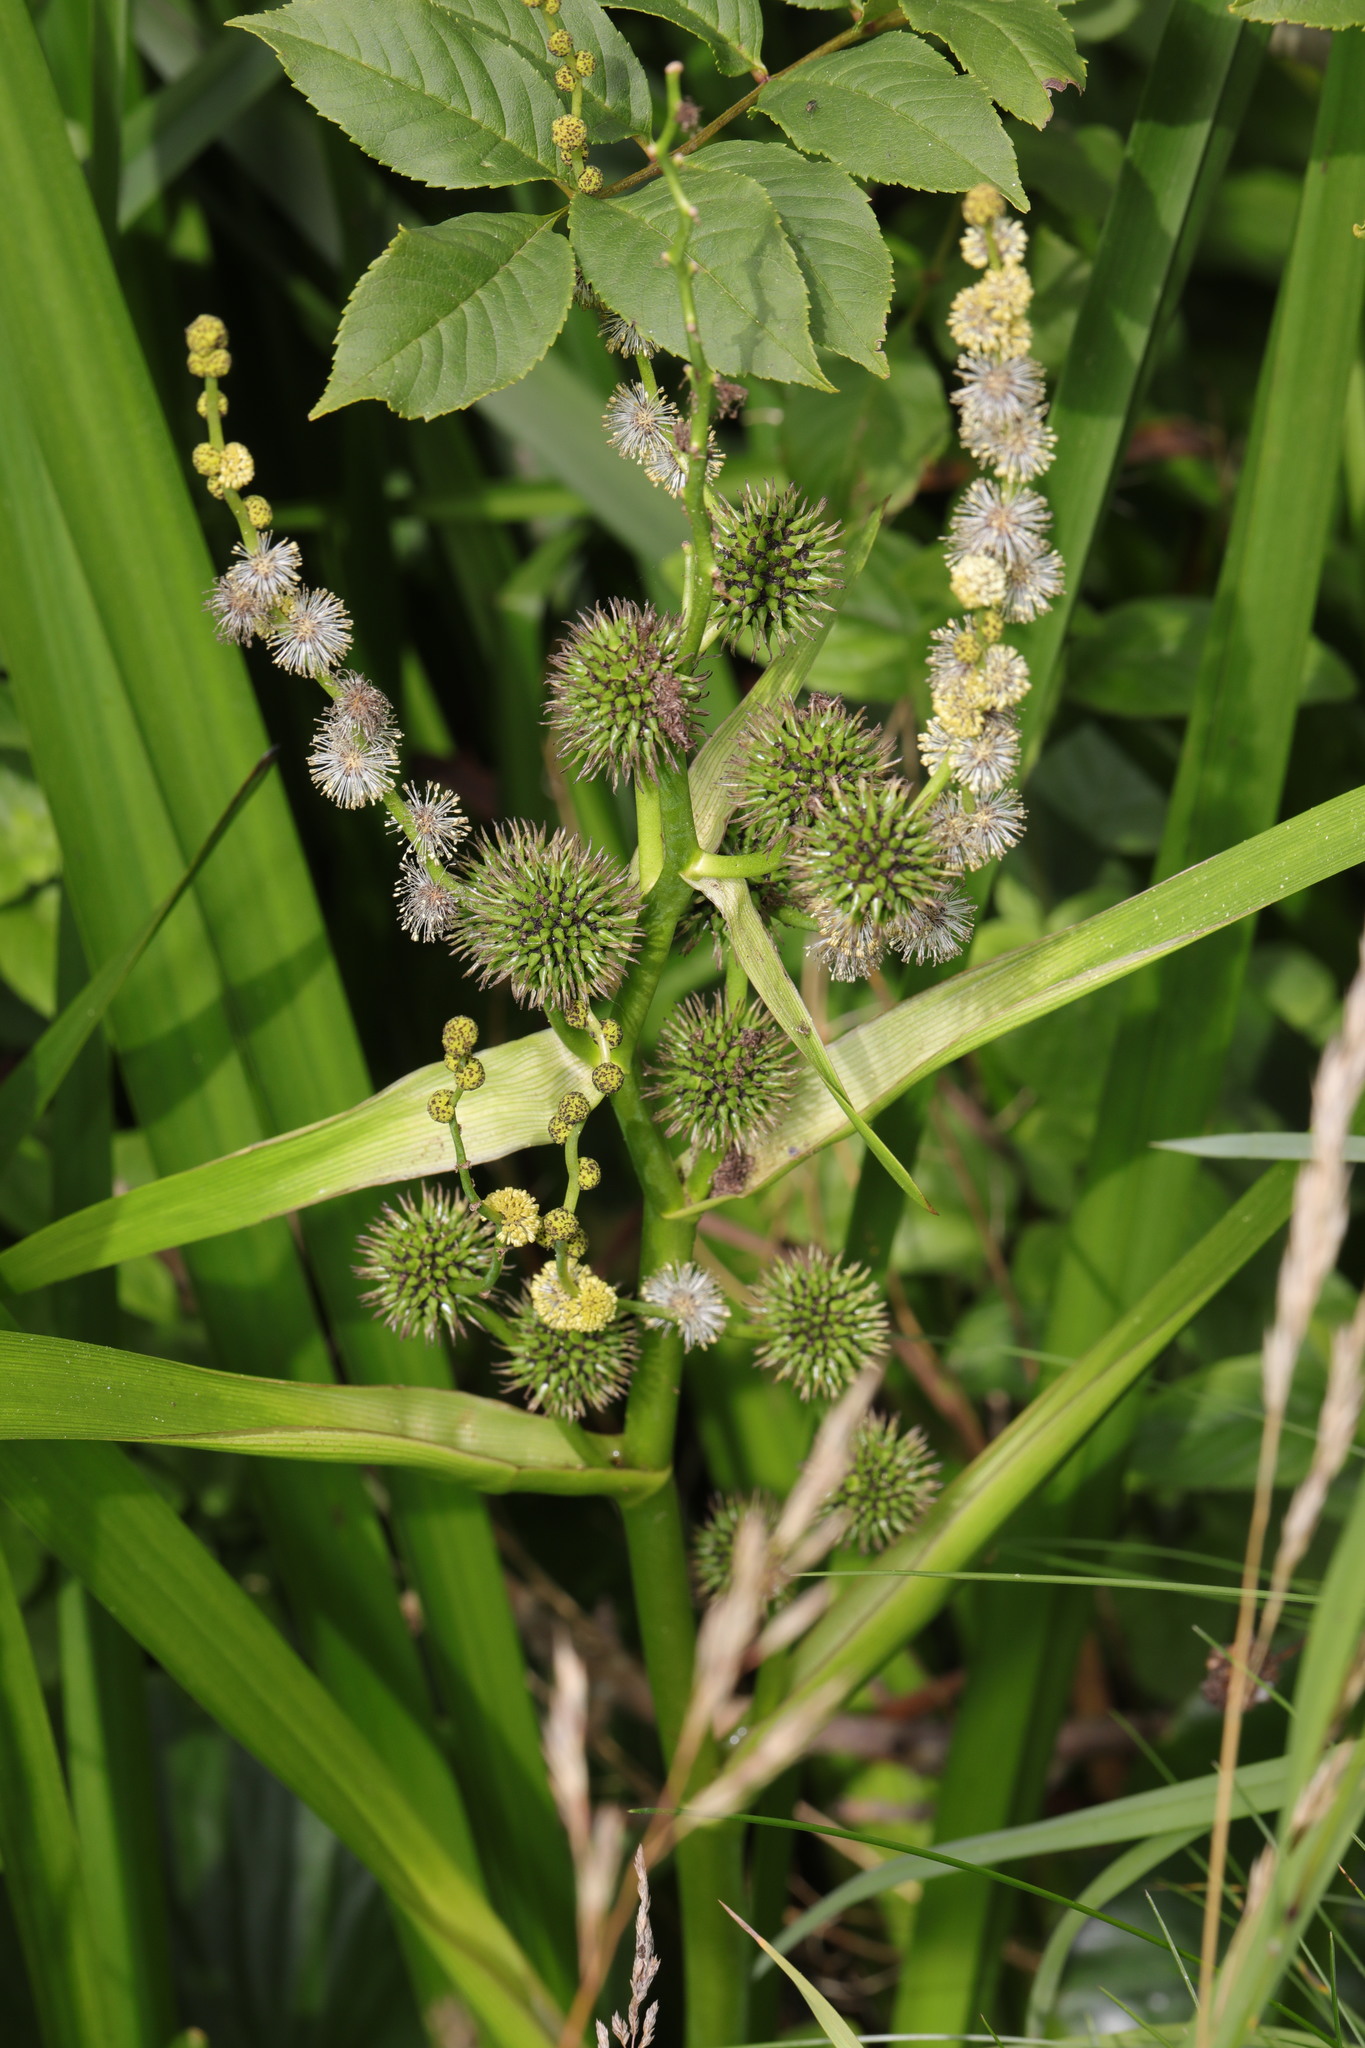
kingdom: Plantae
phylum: Tracheophyta
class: Liliopsida
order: Poales
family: Typhaceae
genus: Sparganium
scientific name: Sparganium erectum
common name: Branched bur-reed
